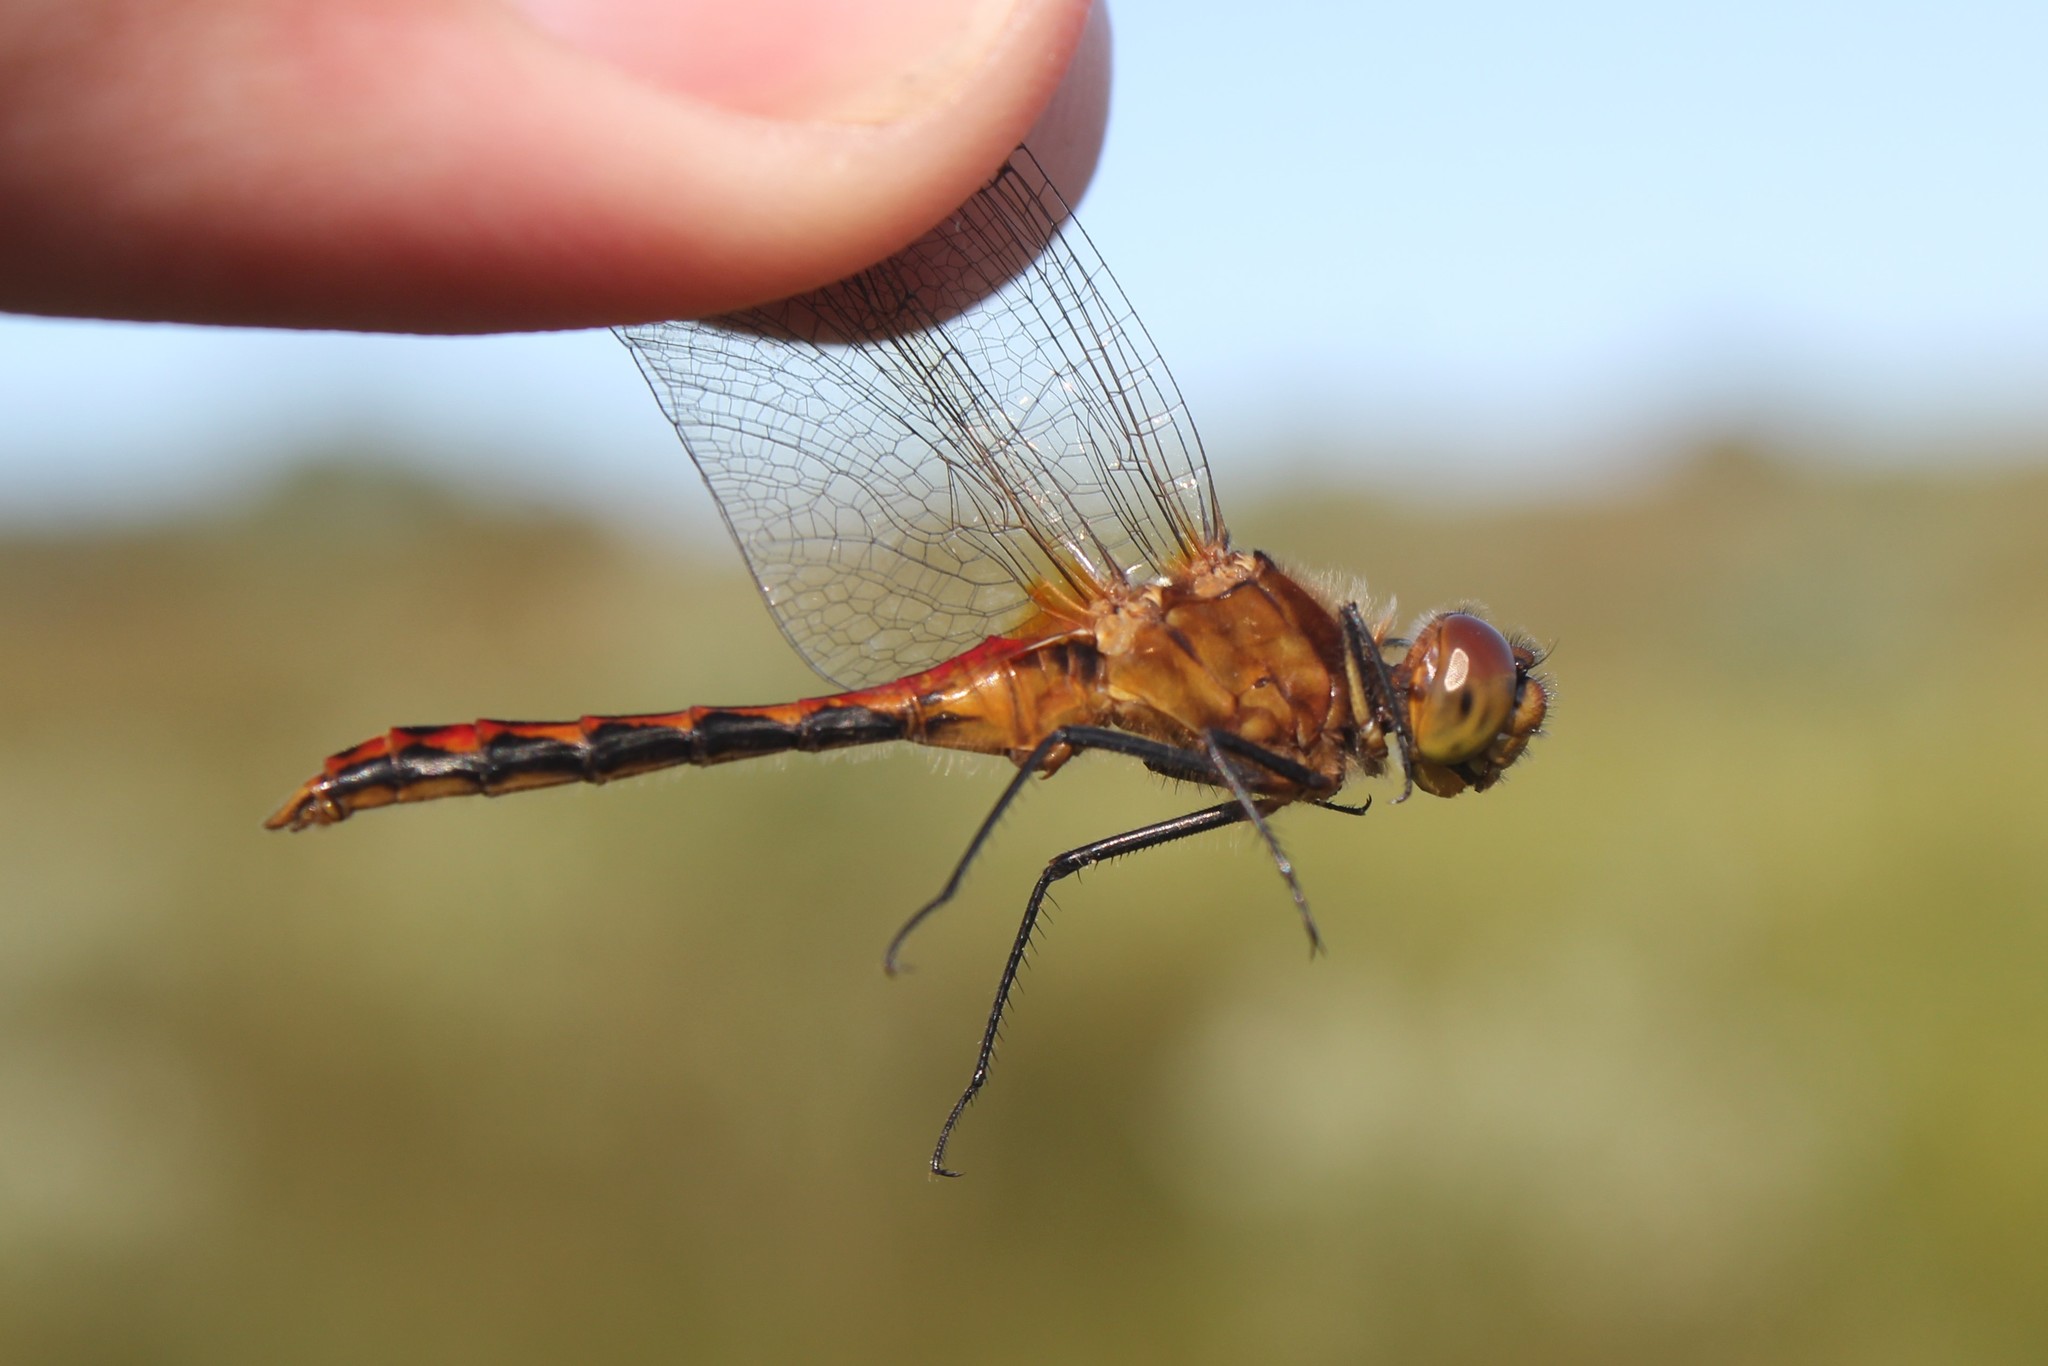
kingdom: Animalia
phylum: Arthropoda
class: Insecta
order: Odonata
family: Libellulidae
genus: Sympetrum
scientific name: Sympetrum internum
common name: Cherry-faced meadowhawk
